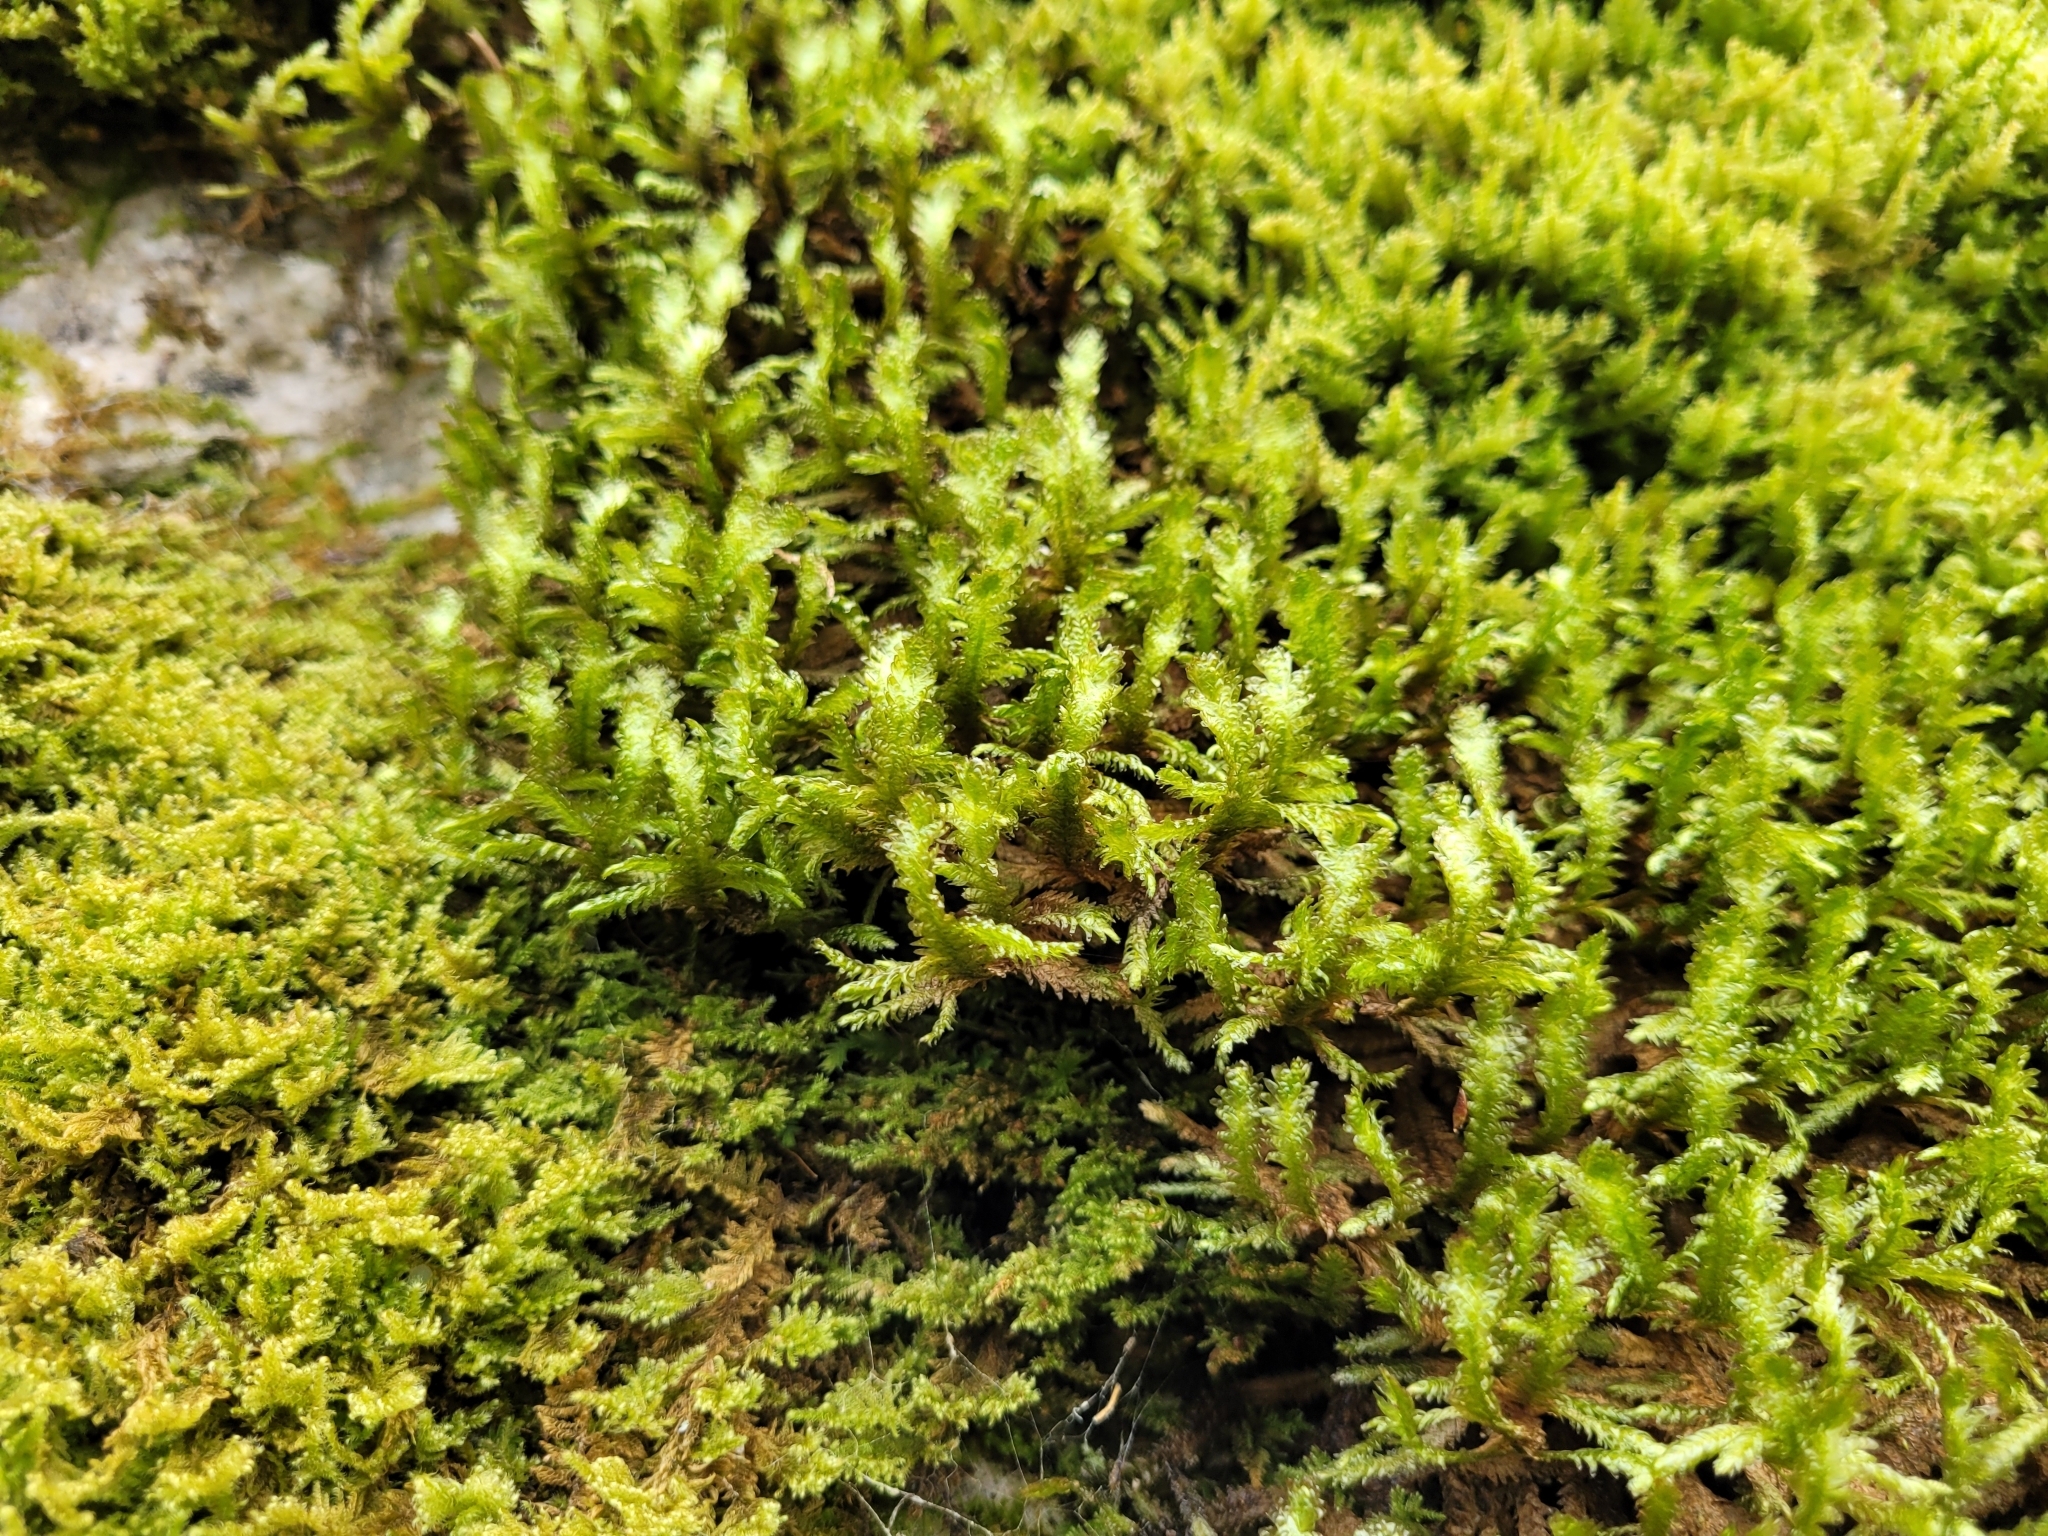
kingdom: Plantae
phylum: Bryophyta
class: Bryopsida
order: Hypnales
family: Neckeraceae
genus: Exsertotheca
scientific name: Exsertotheca crispa
